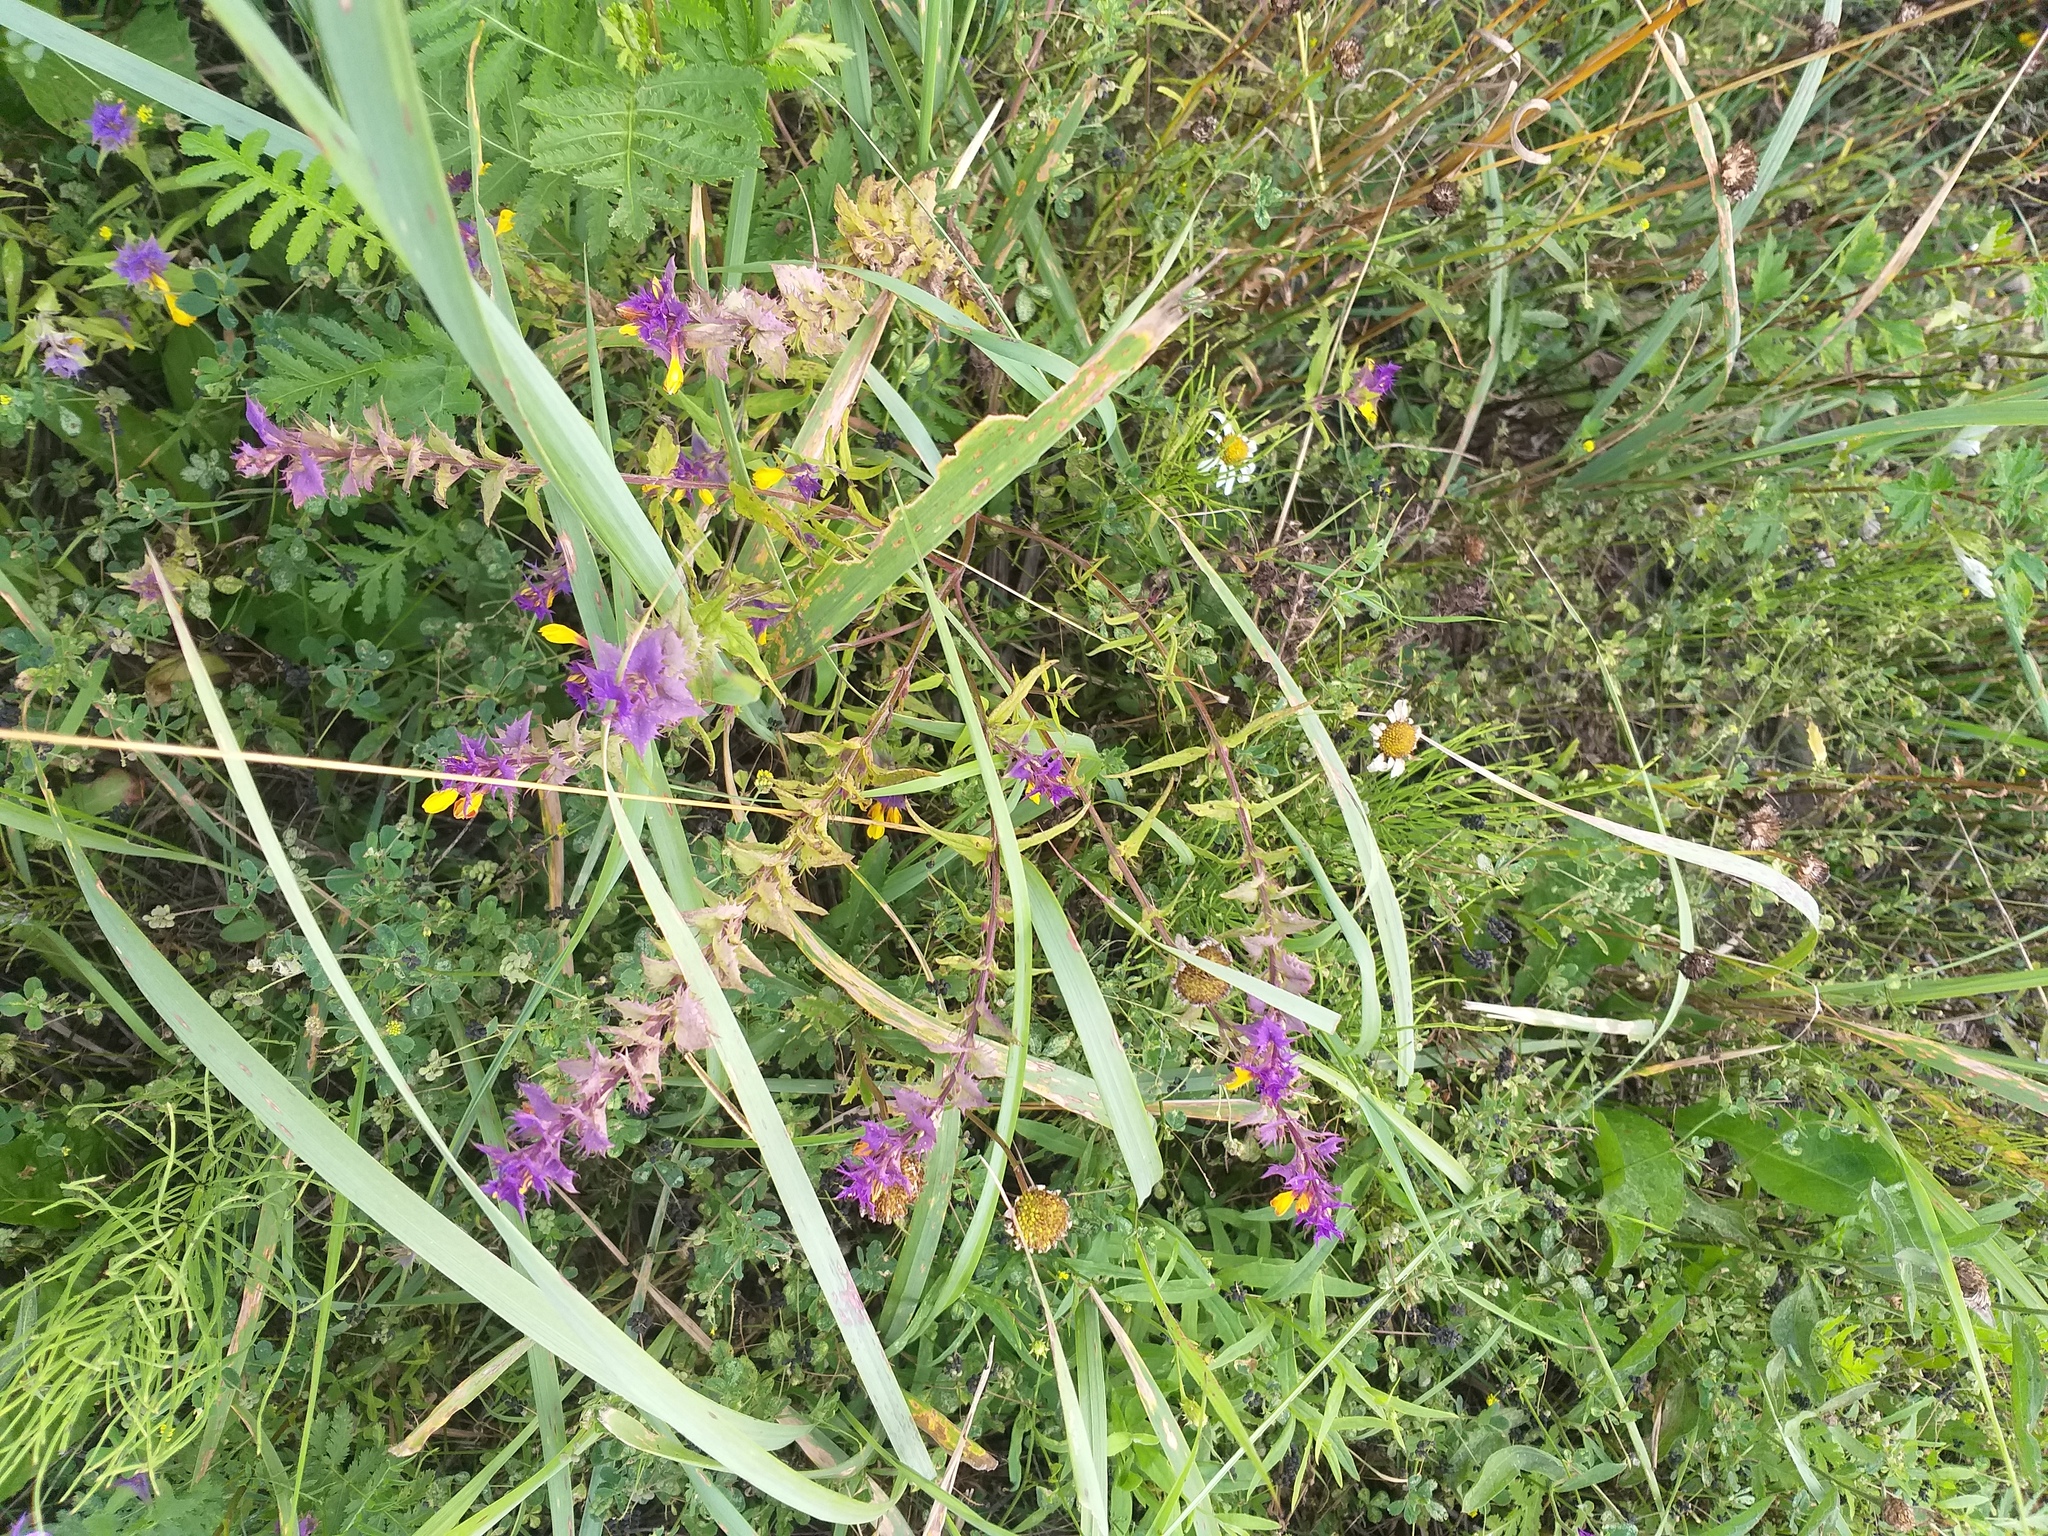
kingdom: Plantae
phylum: Tracheophyta
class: Magnoliopsida
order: Lamiales
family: Orobanchaceae
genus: Melampyrum
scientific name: Melampyrum nemorosum
